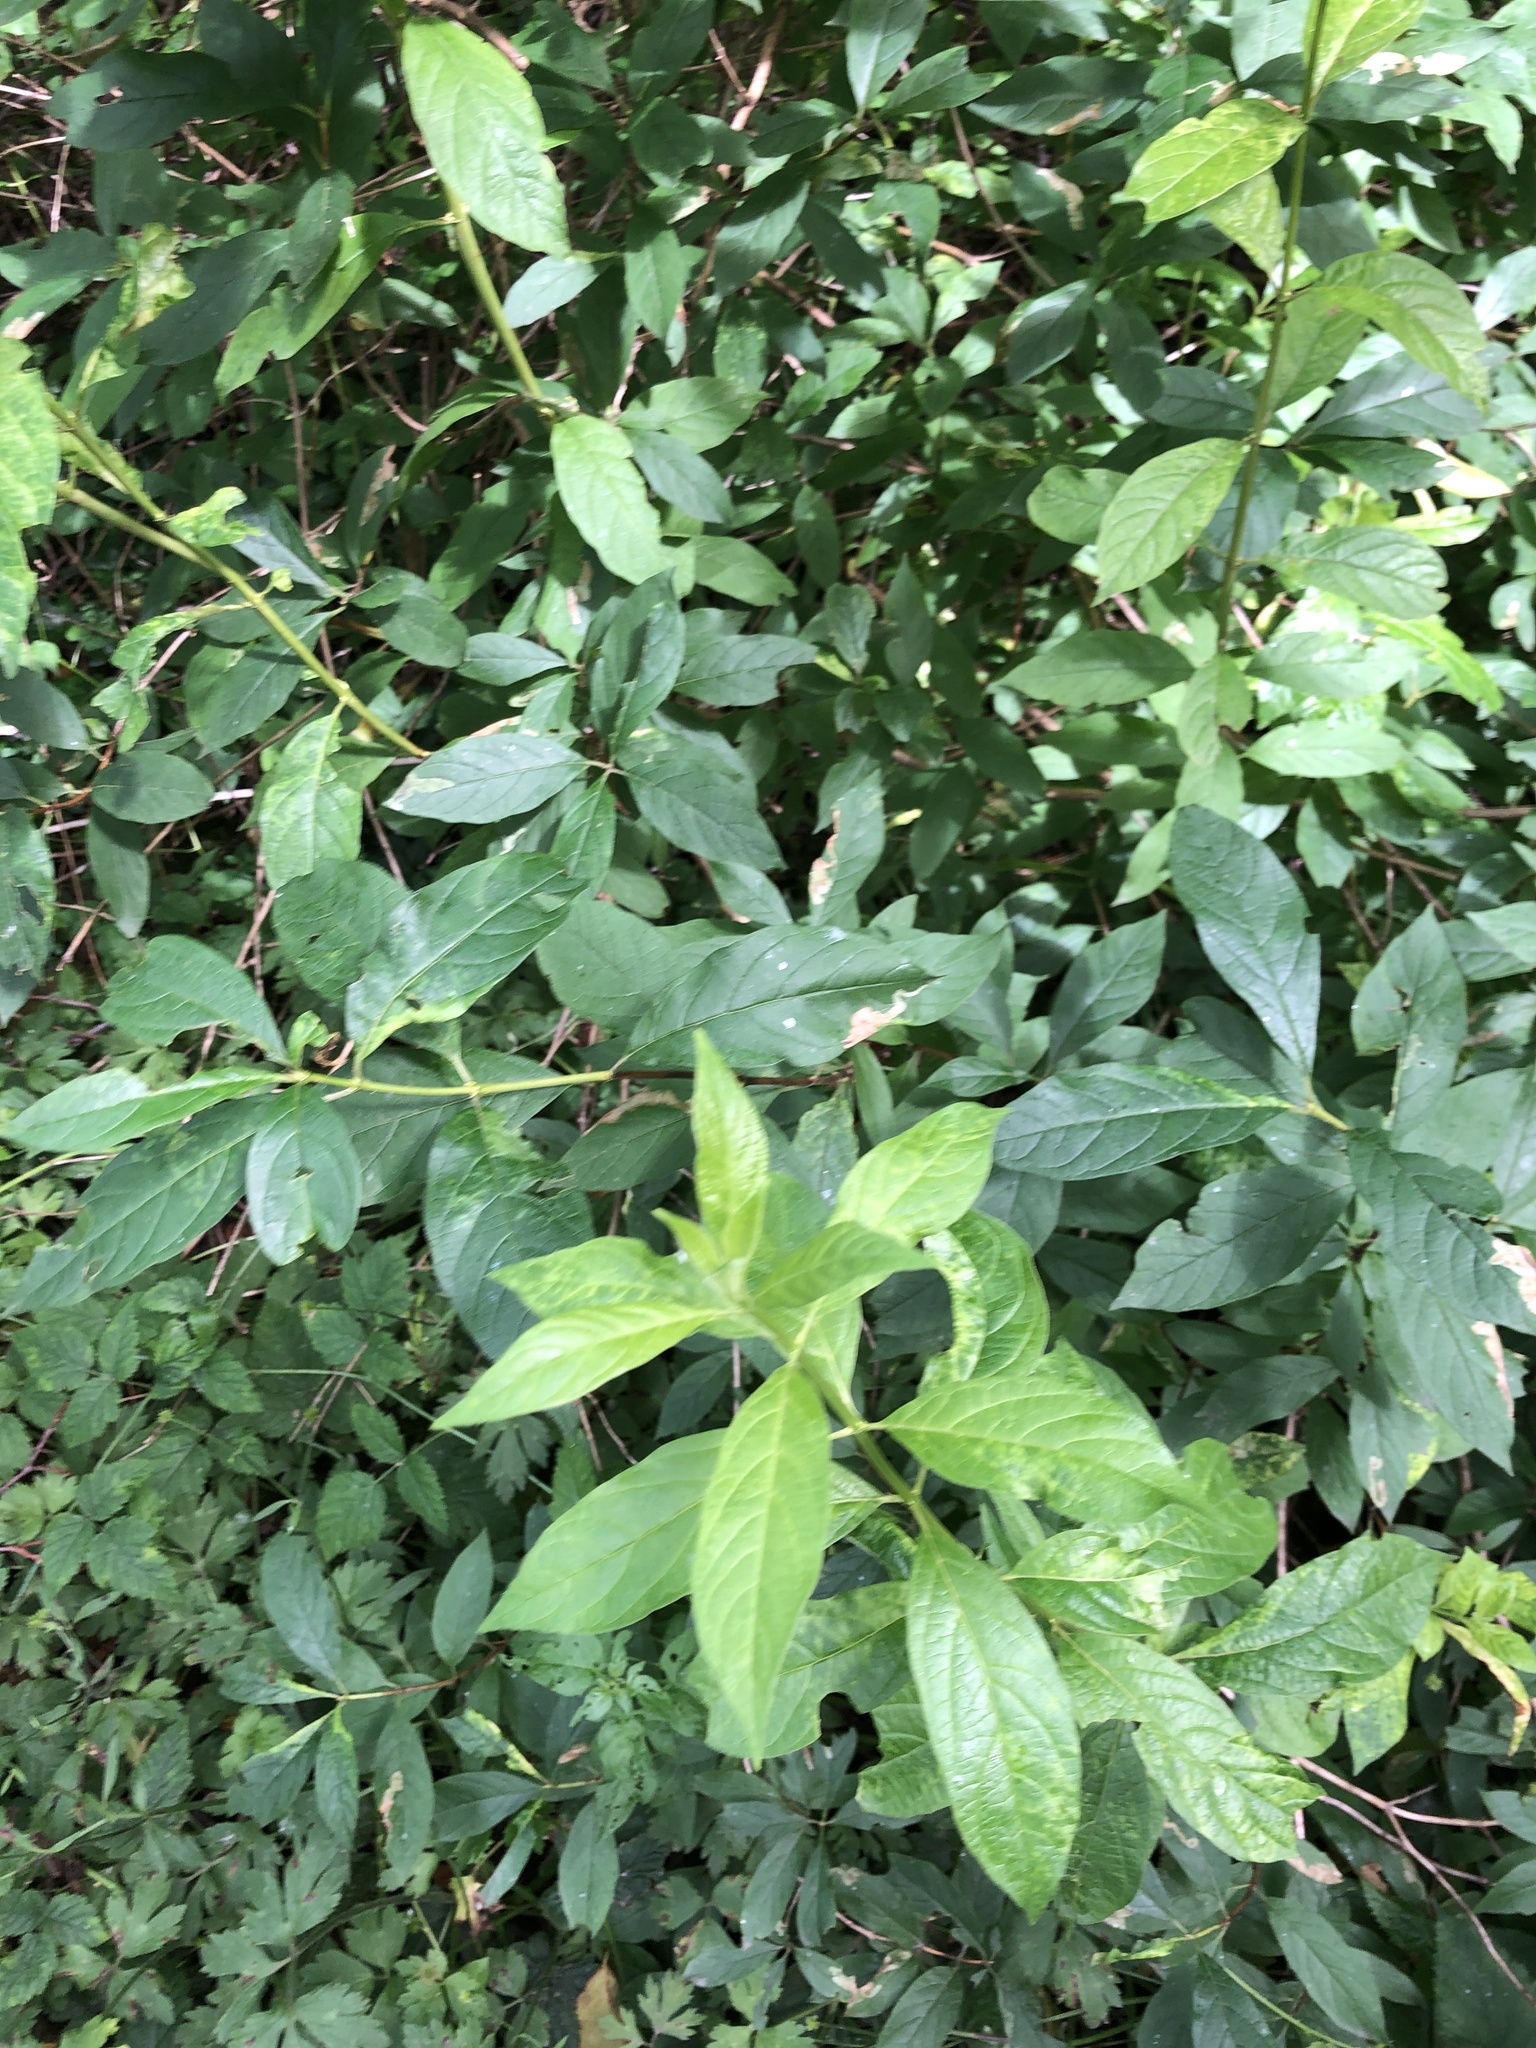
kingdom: Plantae
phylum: Tracheophyta
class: Magnoliopsida
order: Dipsacales
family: Caprifoliaceae
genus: Lonicera
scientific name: Lonicera involucrata
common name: Californian honeysuckle
